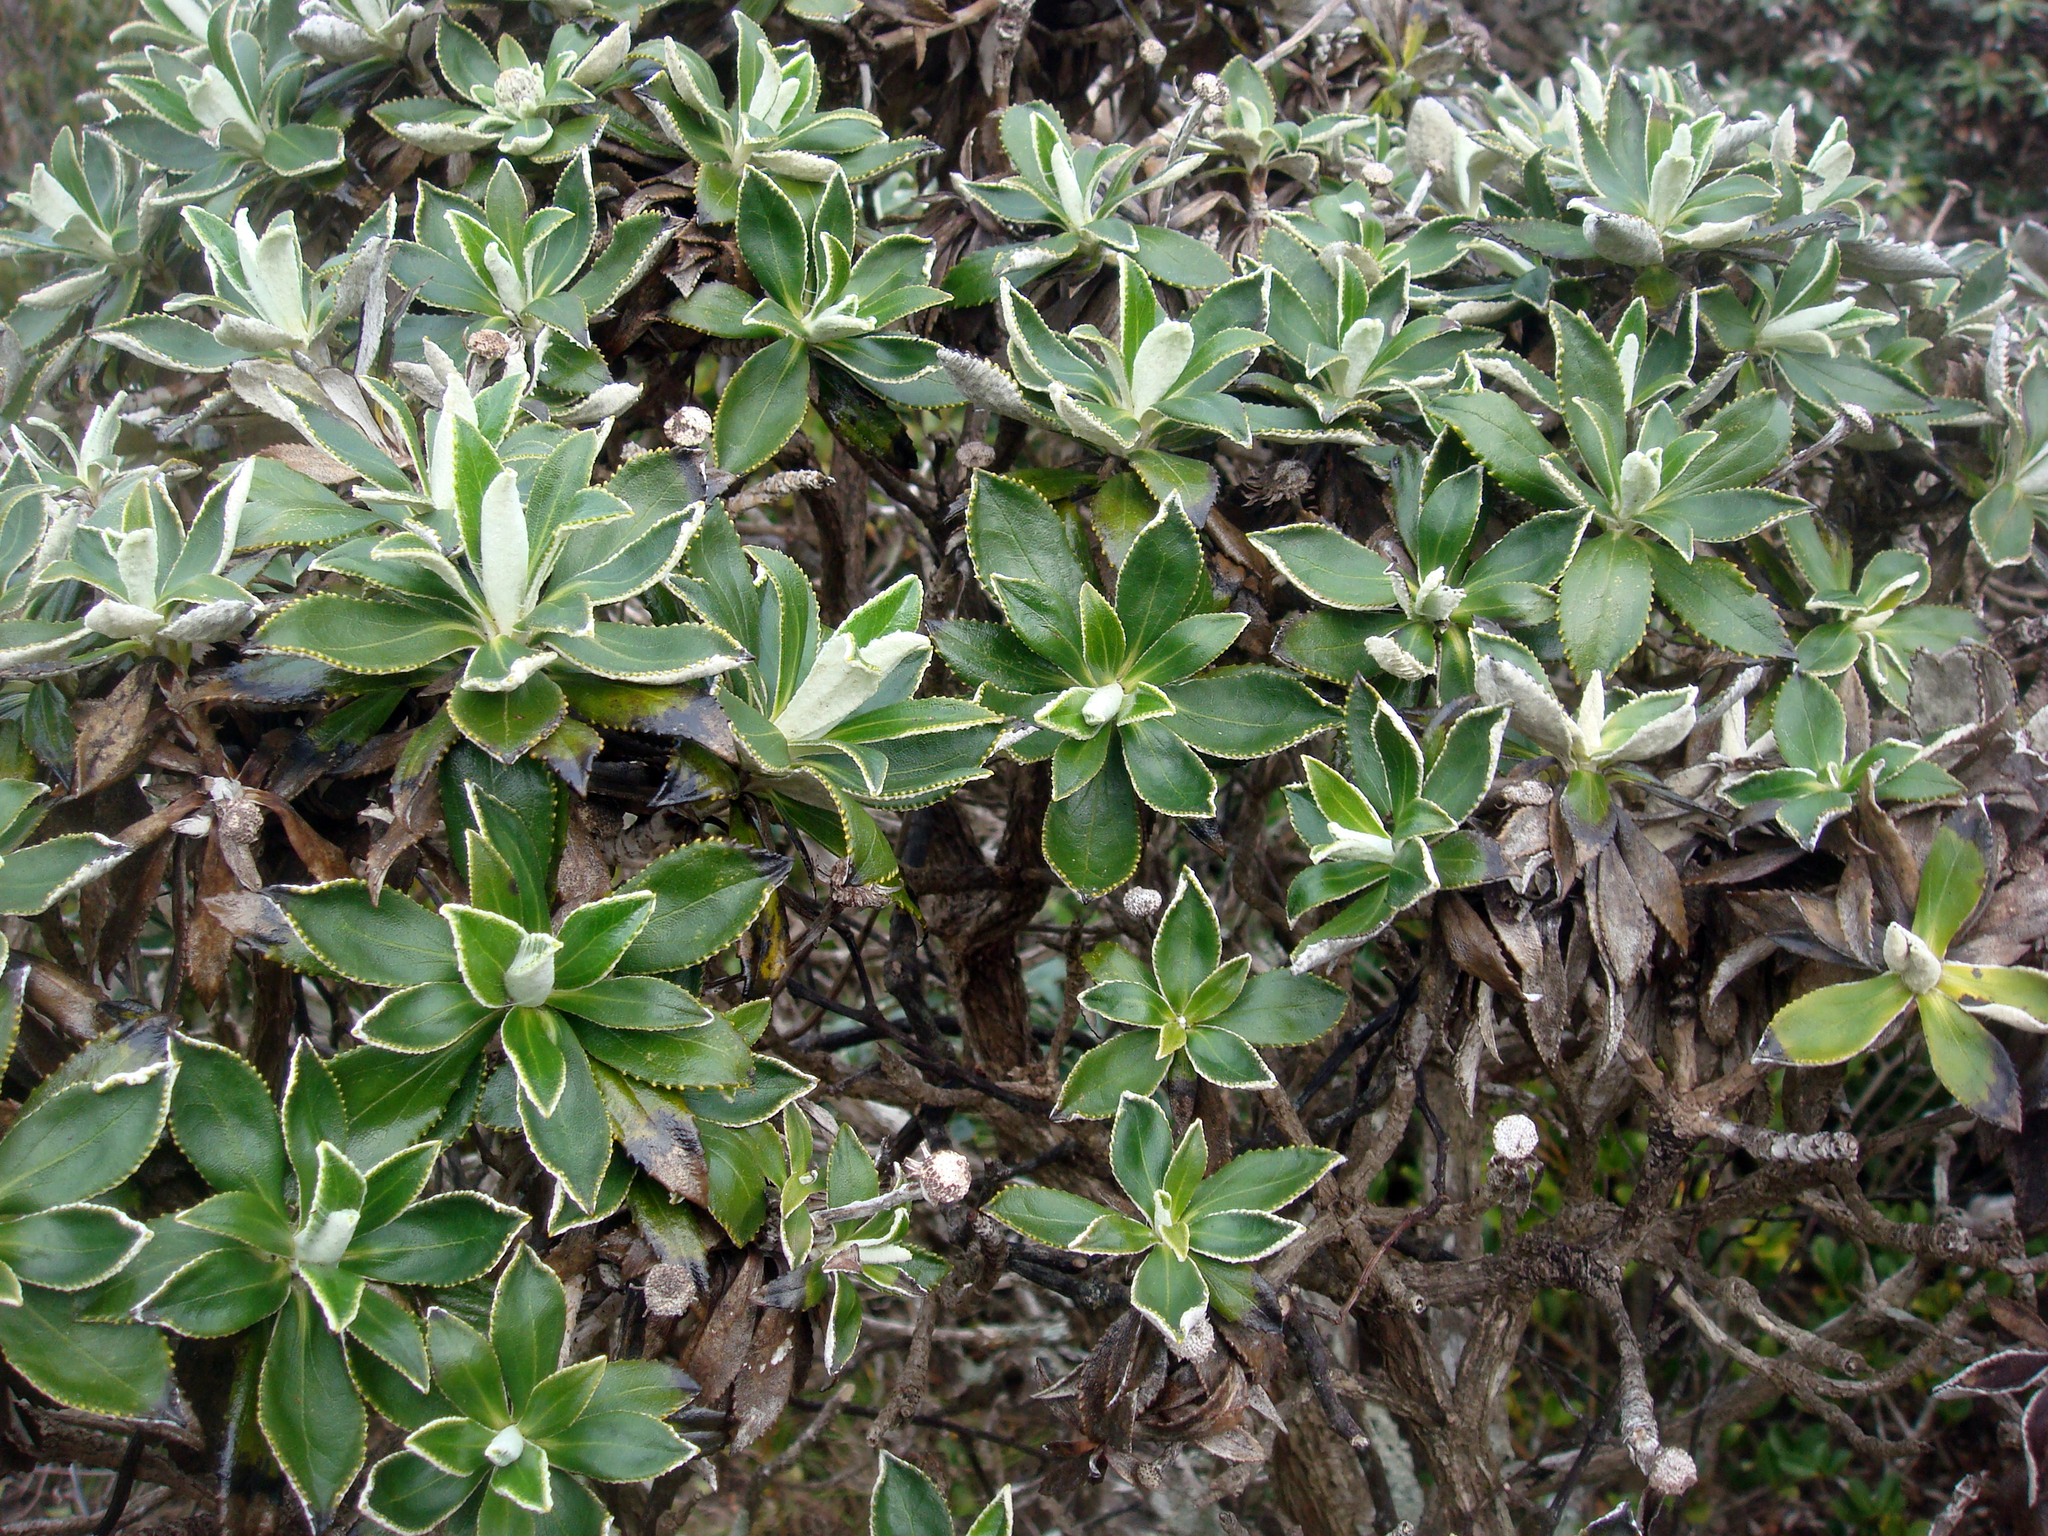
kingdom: Plantae
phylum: Tracheophyta
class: Magnoliopsida
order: Asterales
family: Asteraceae
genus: Macrolearia
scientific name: Macrolearia chathamica
